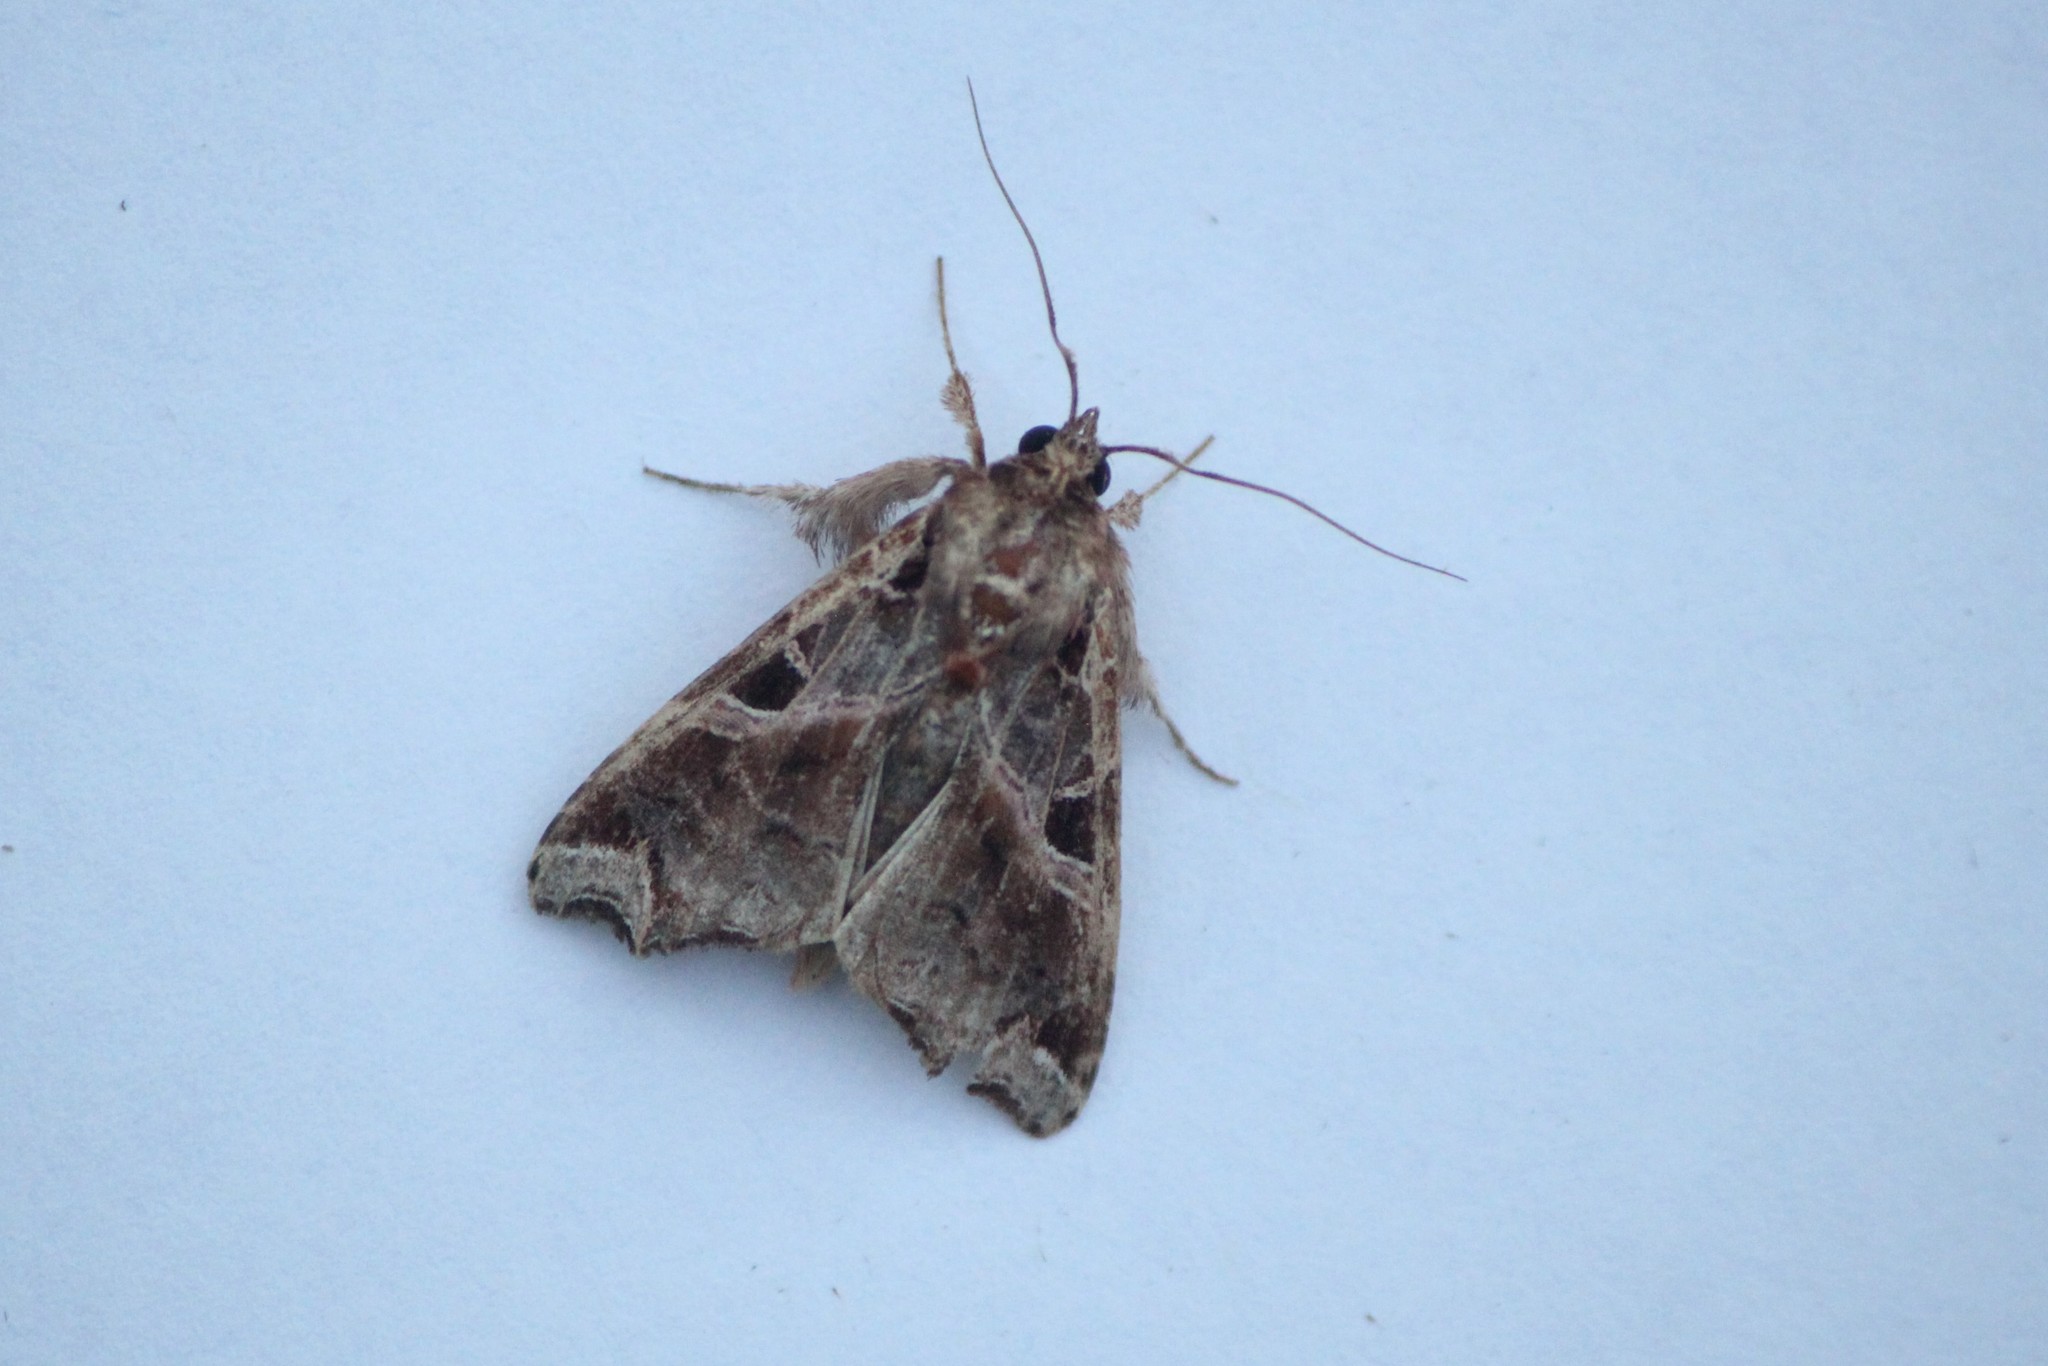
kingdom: Animalia
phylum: Arthropoda
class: Insecta
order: Lepidoptera
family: Noctuidae
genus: Callopistria
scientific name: Callopistria floridensis
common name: Florida fern moth
